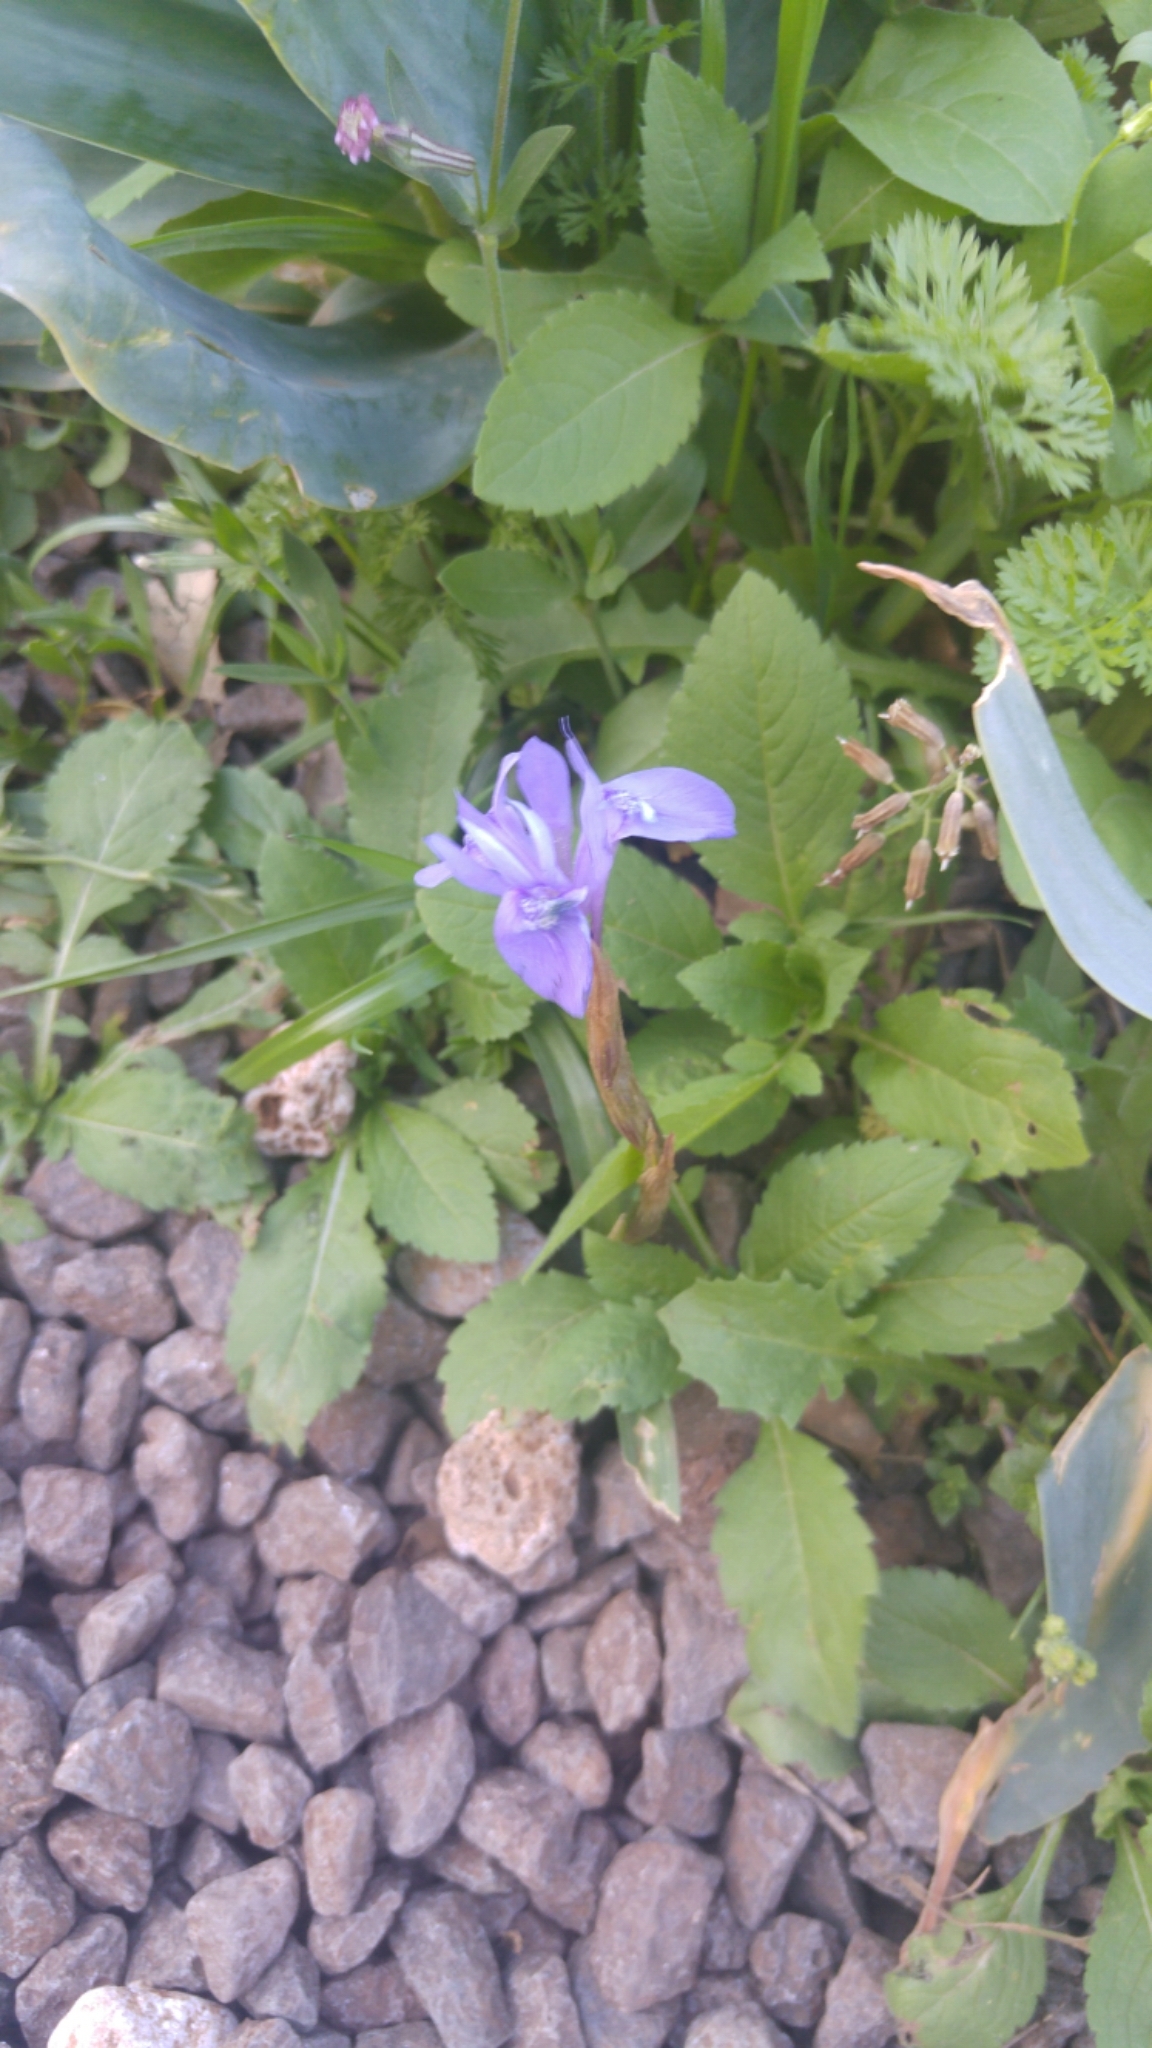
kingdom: Plantae
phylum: Tracheophyta
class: Liliopsida
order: Asparagales
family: Iridaceae
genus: Moraea
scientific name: Moraea sisyrinchium
